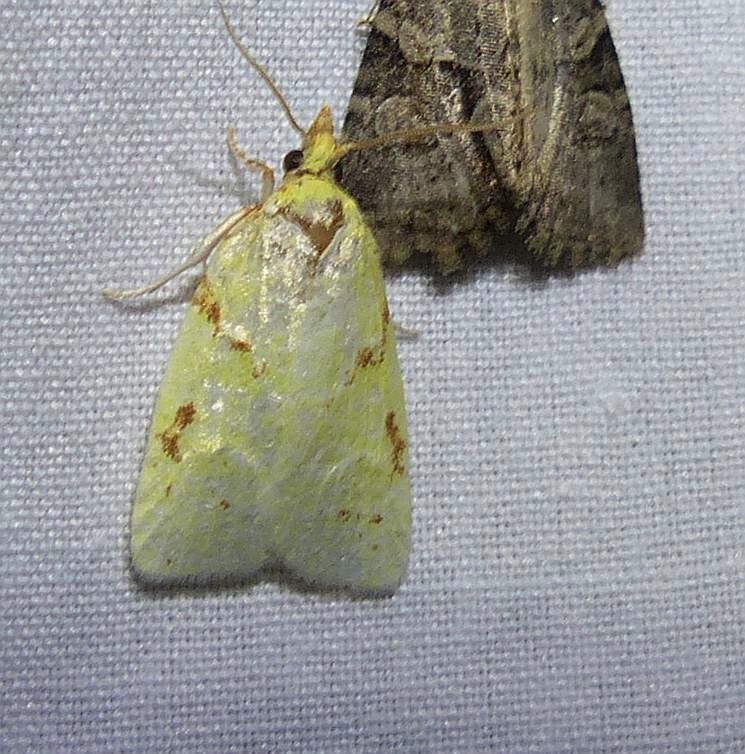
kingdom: Animalia
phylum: Arthropoda
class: Insecta
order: Lepidoptera
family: Tortricidae
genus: Cenopis
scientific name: Cenopis pettitana
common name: Maple-basswood leafroller moth
